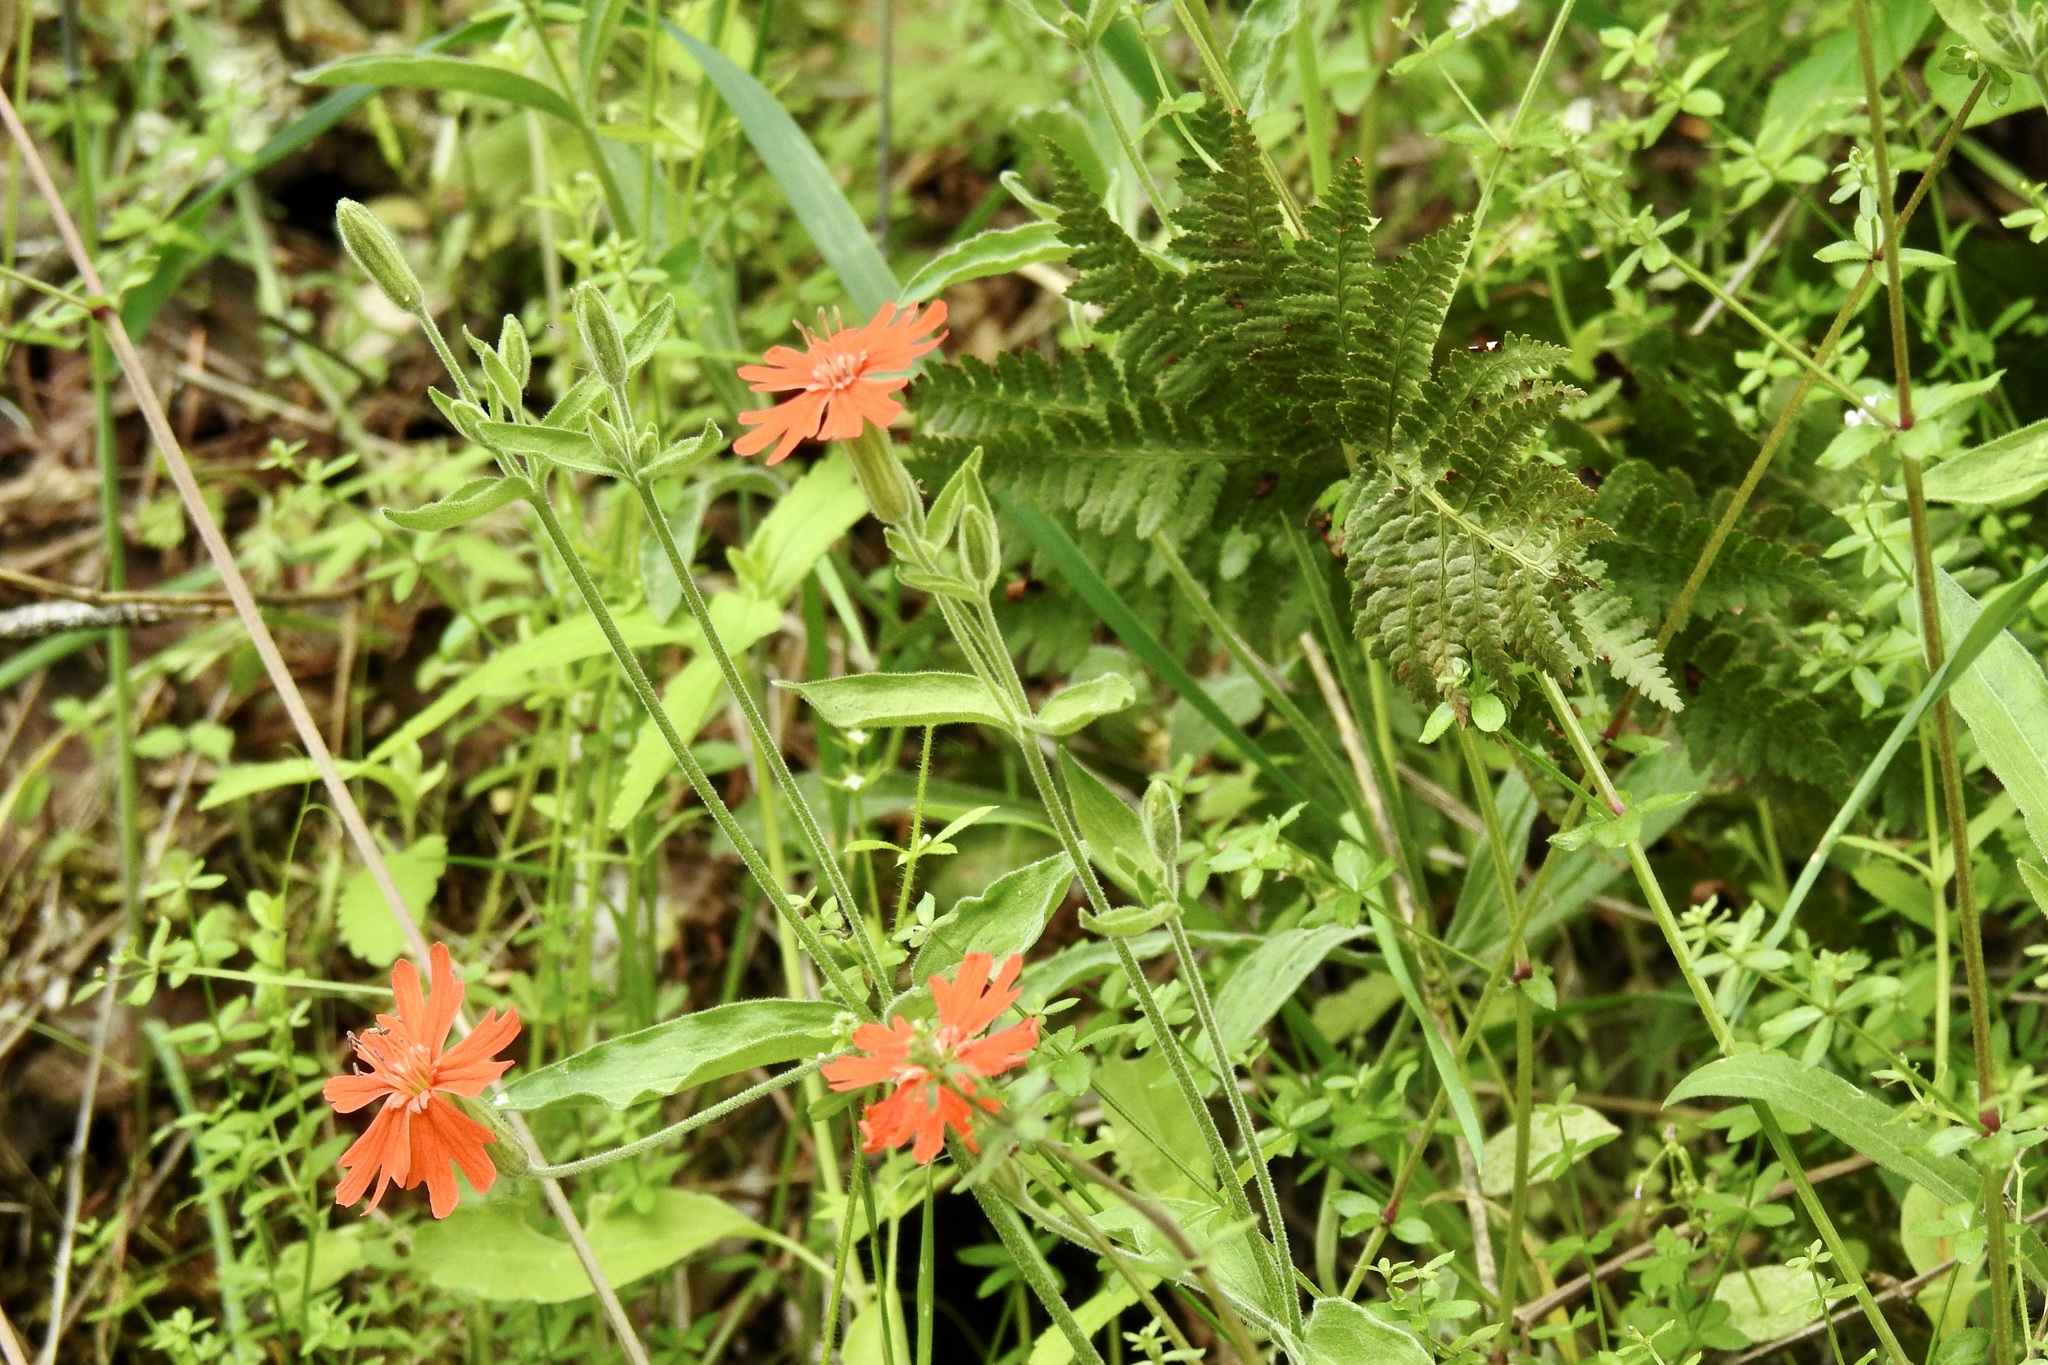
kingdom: Plantae
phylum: Tracheophyta
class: Magnoliopsida
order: Caryophyllales
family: Caryophyllaceae
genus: Silene
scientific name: Silene laciniata
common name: Indian-pink
